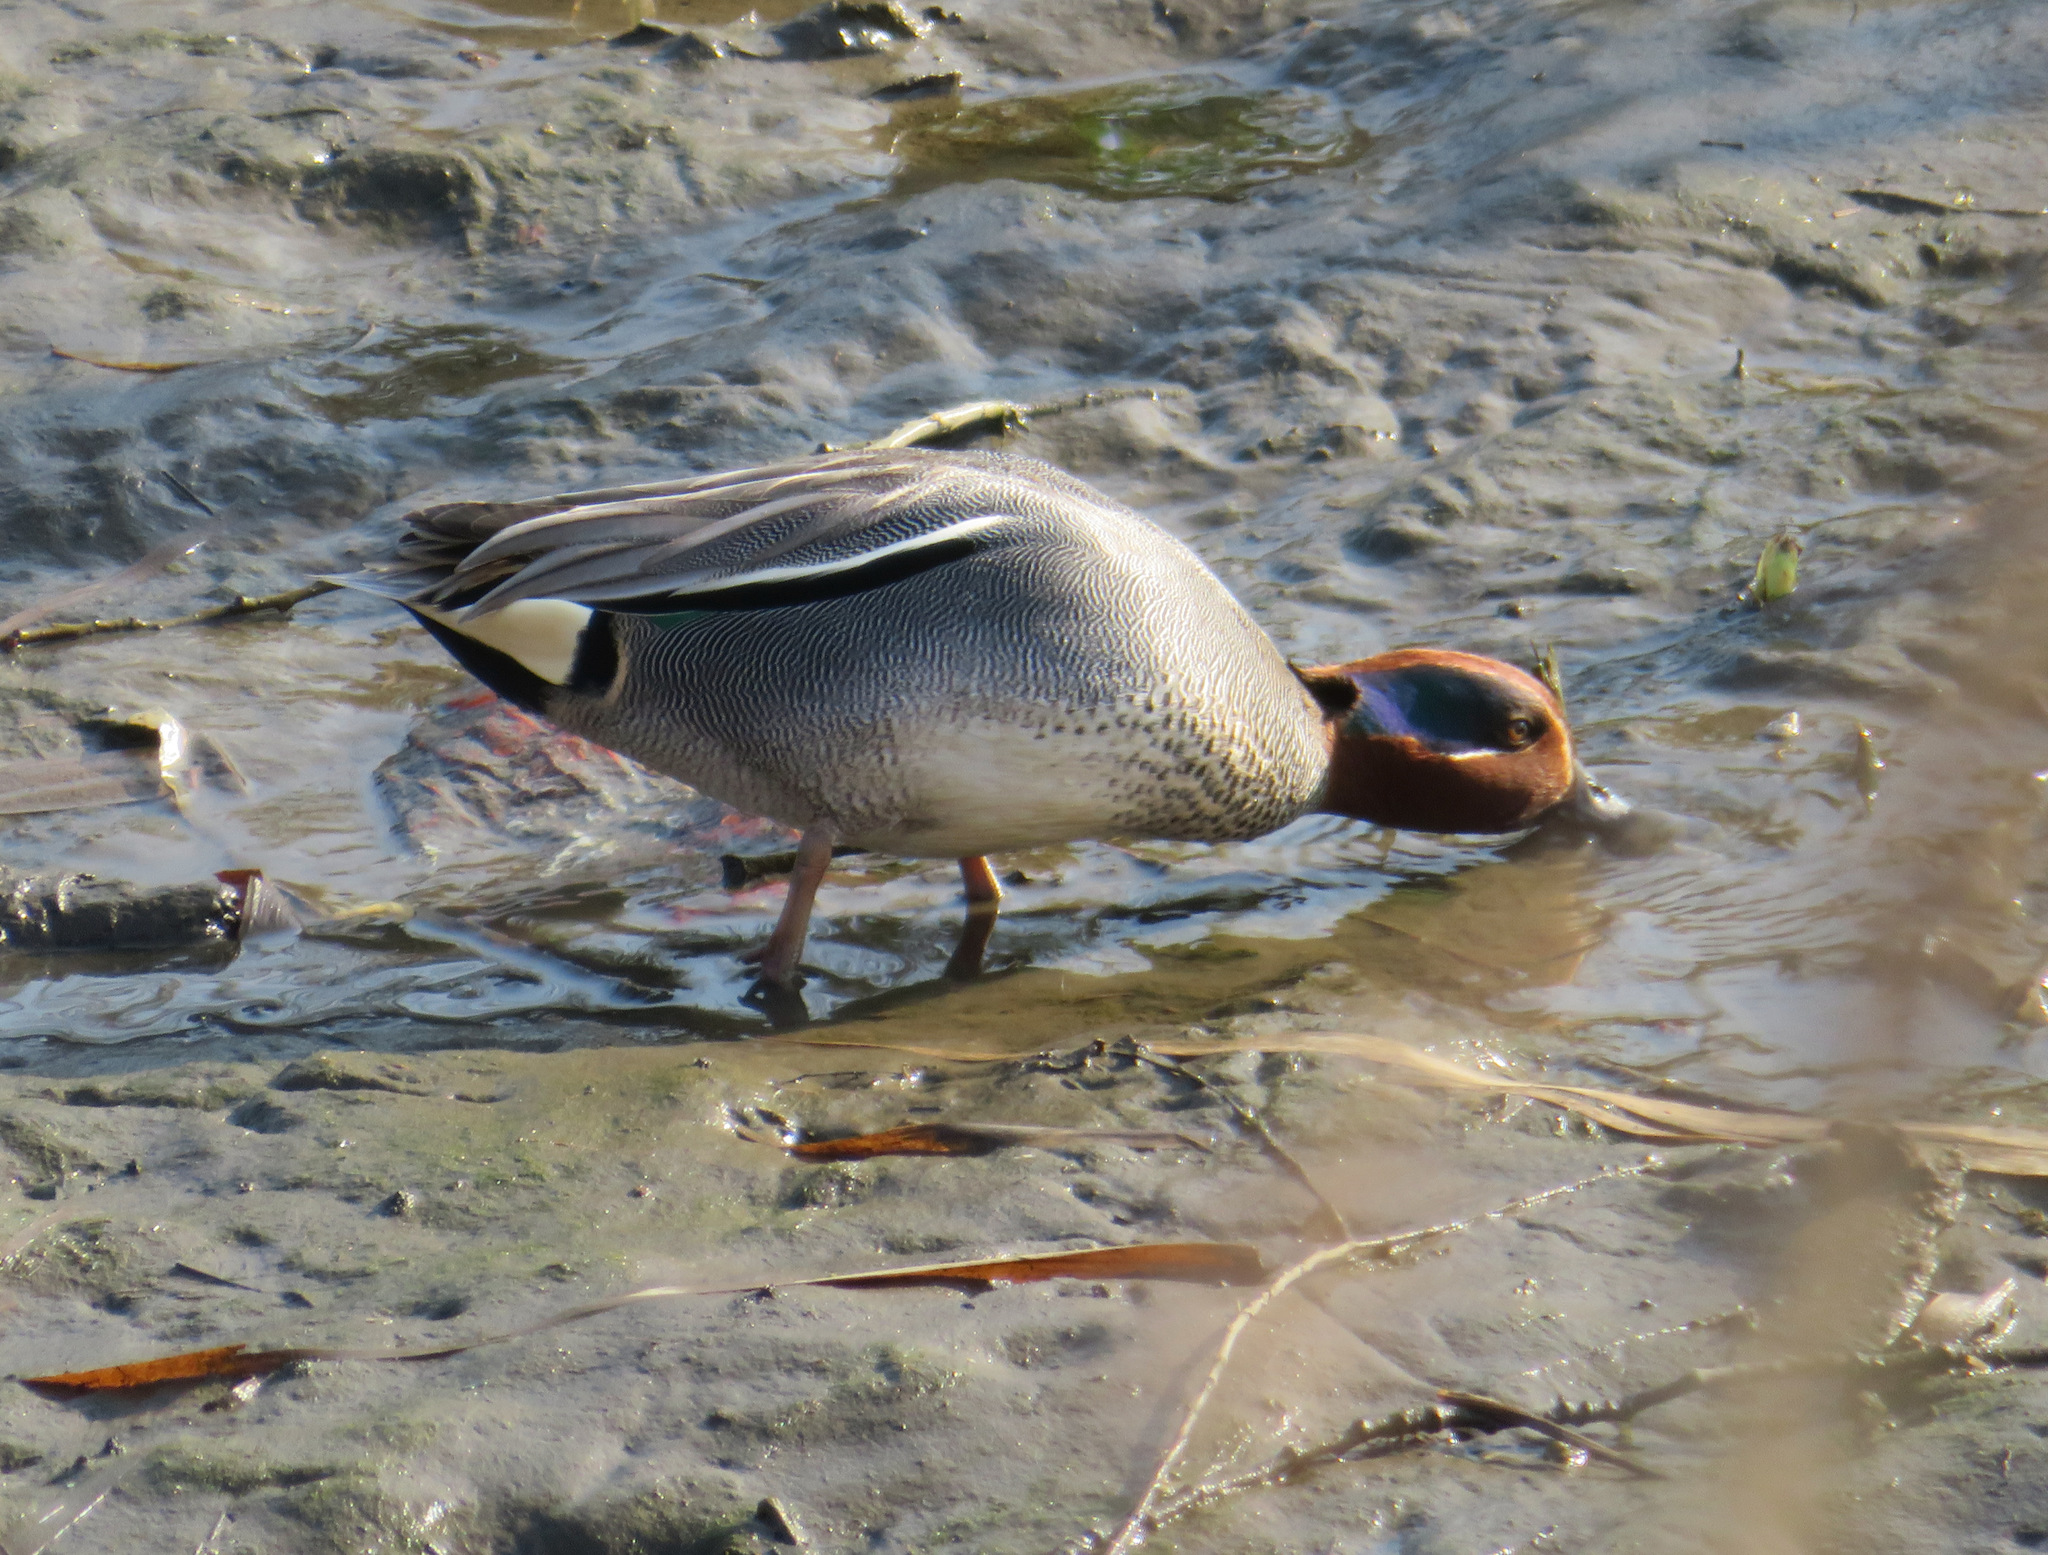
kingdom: Animalia
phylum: Chordata
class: Aves
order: Anseriformes
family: Anatidae
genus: Anas
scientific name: Anas crecca
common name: Eurasian teal
